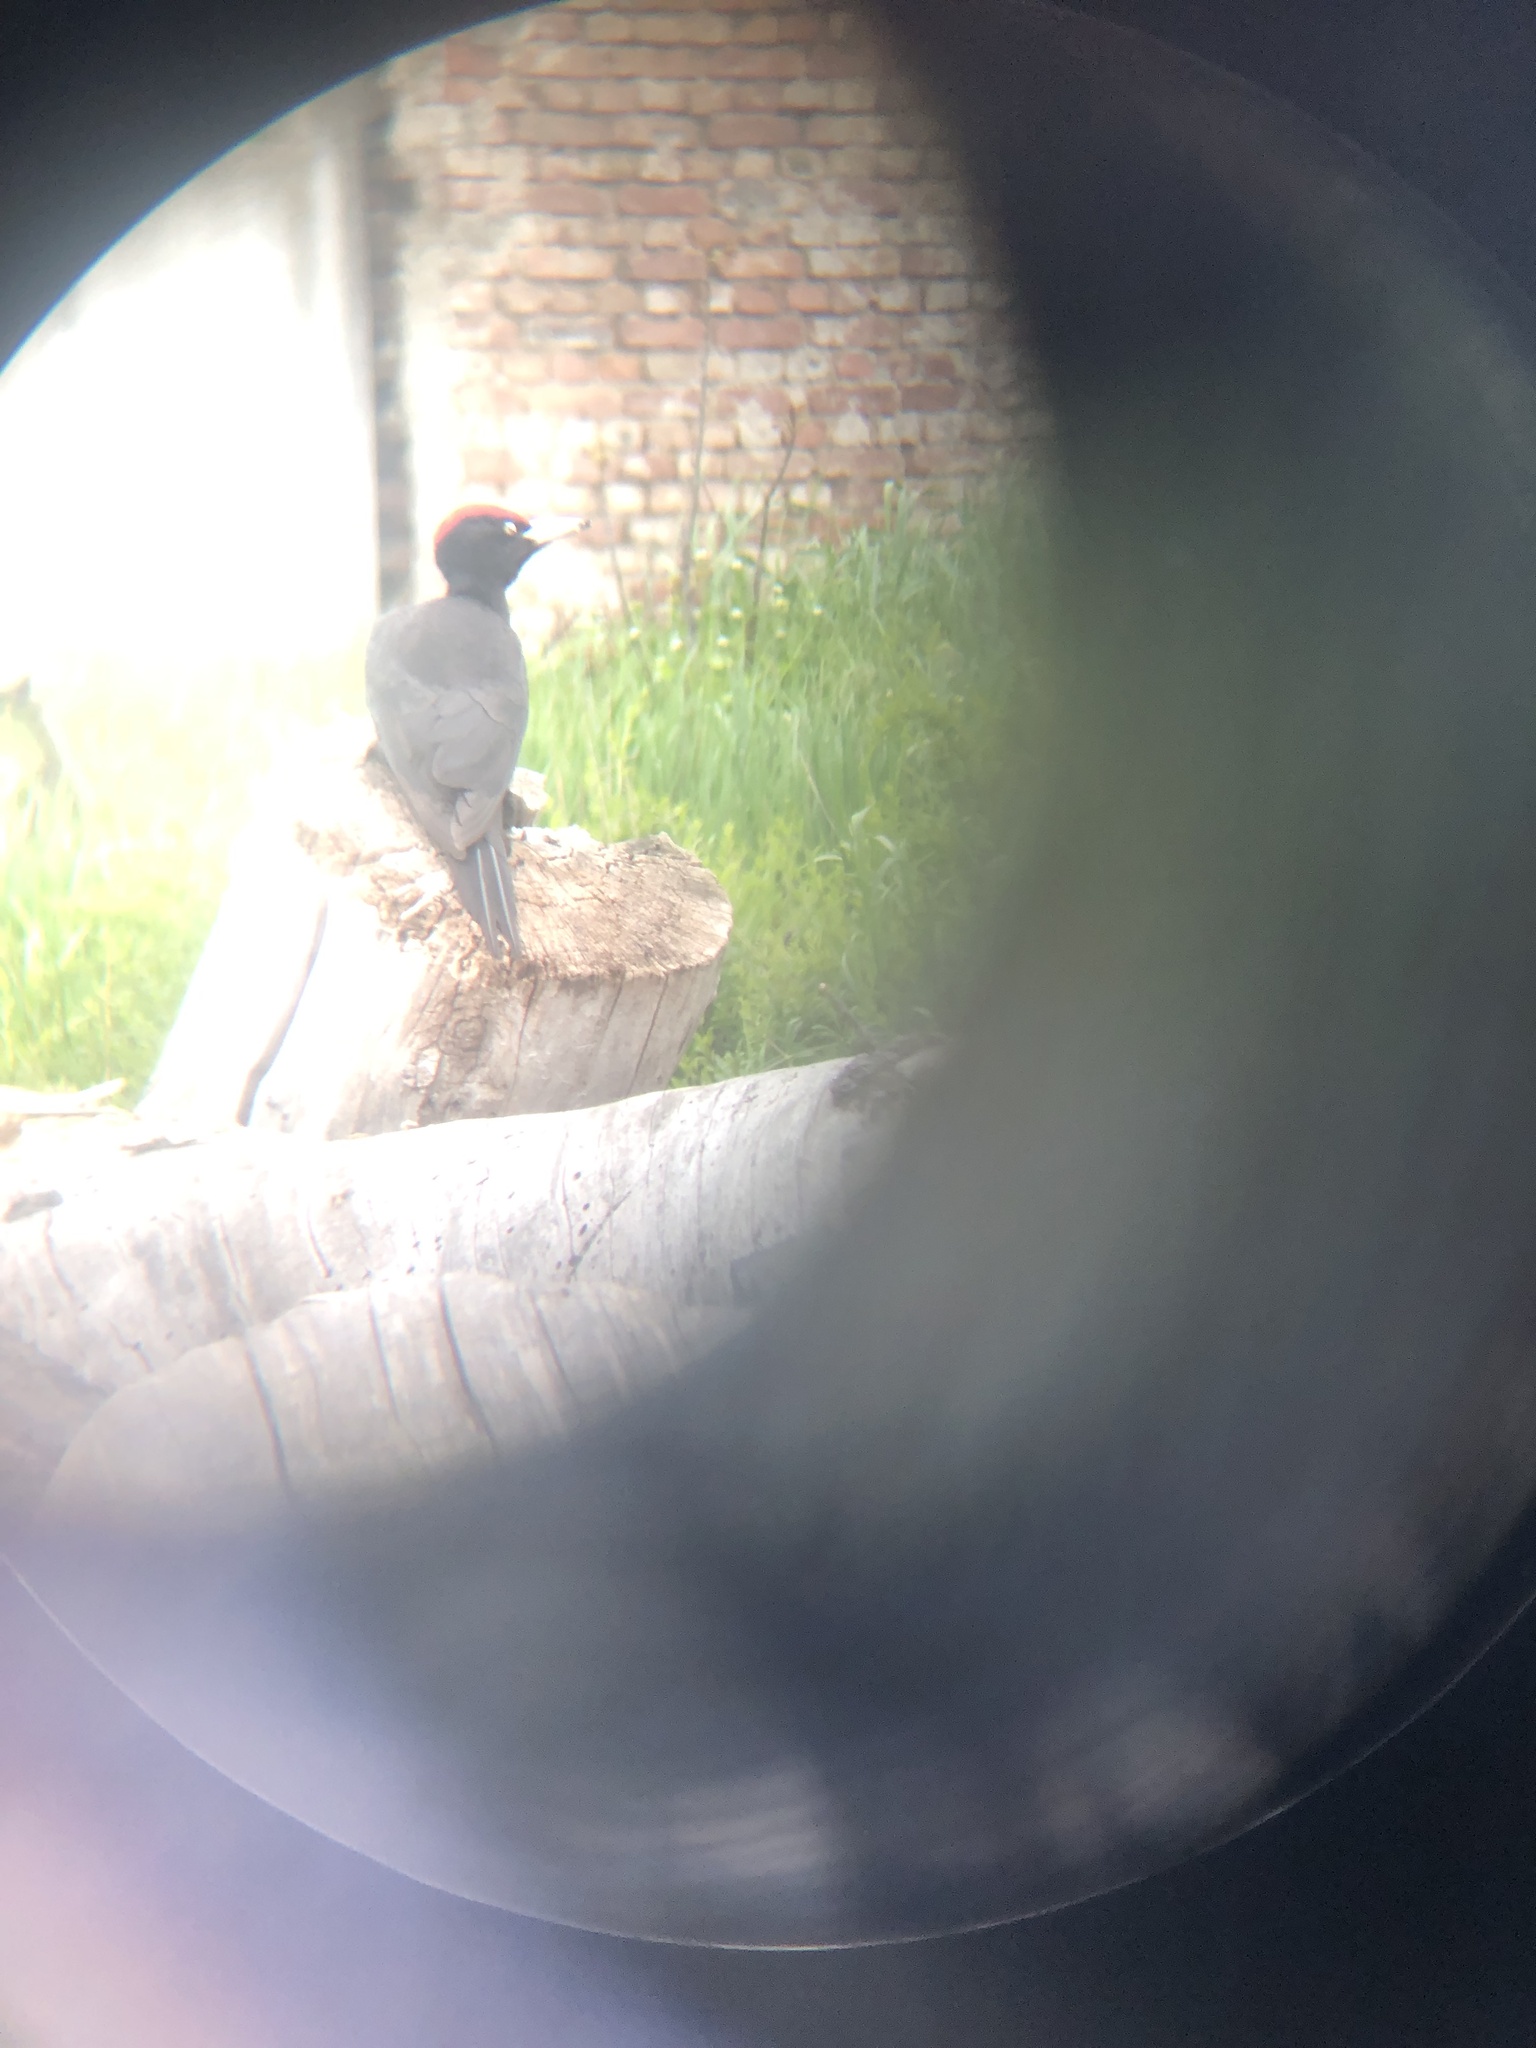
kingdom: Animalia
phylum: Chordata
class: Aves
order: Piciformes
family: Picidae
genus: Dryocopus
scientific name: Dryocopus martius
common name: Black woodpecker
